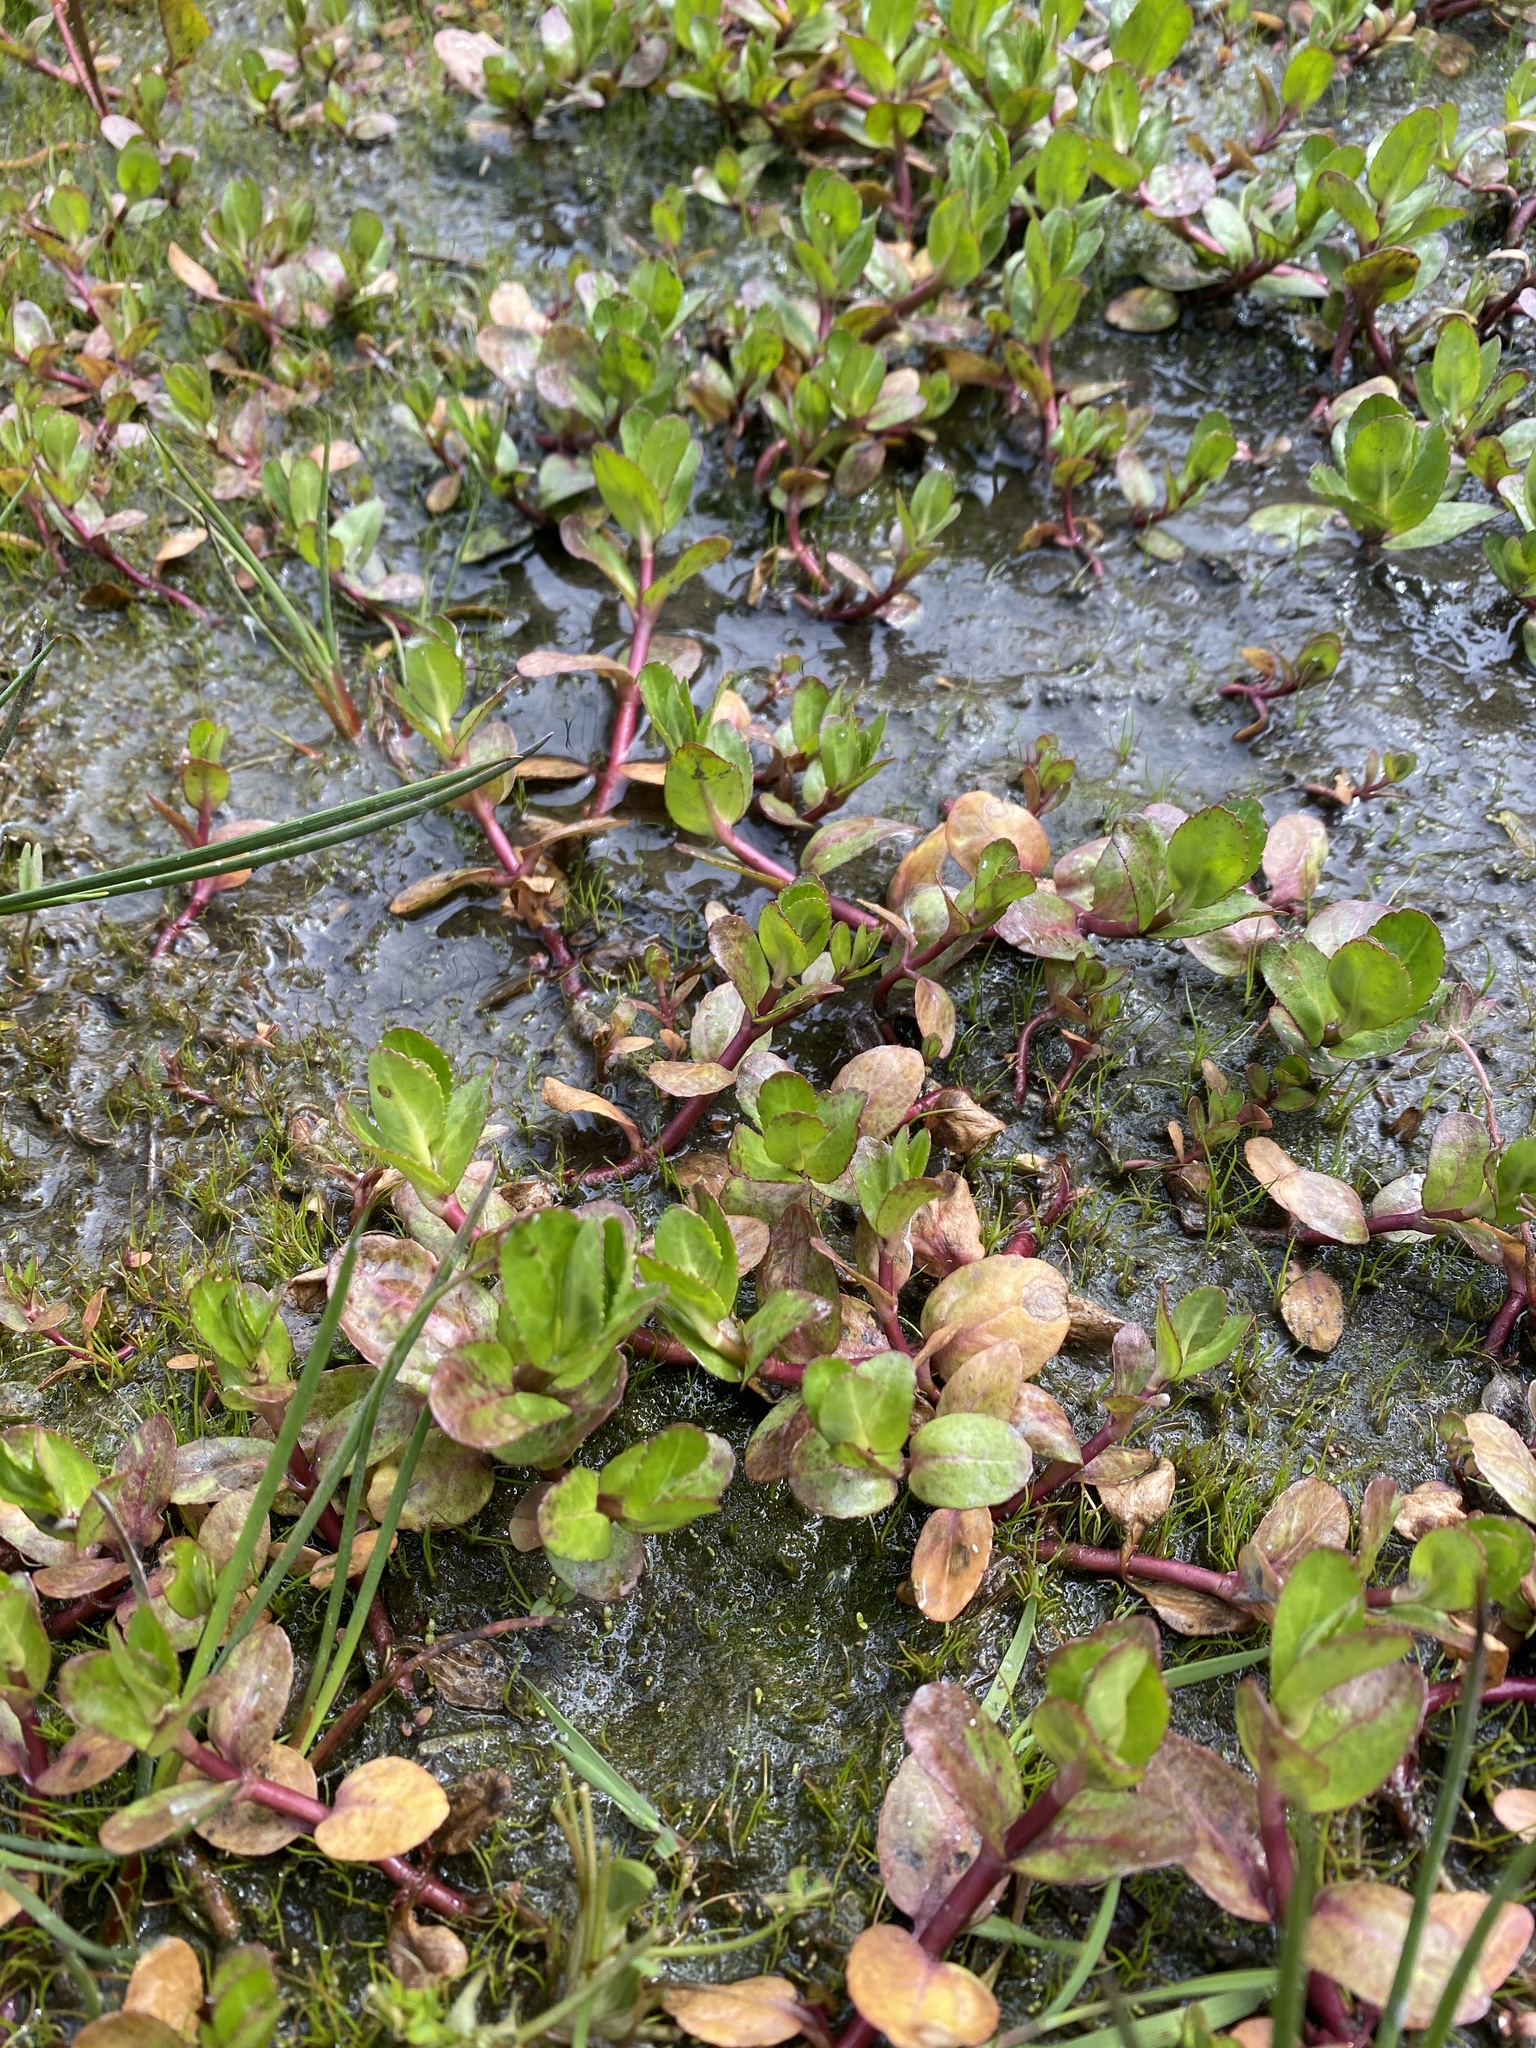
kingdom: Plantae
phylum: Tracheophyta
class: Magnoliopsida
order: Lamiales
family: Plantaginaceae
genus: Veronica
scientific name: Veronica beccabunga
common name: Brooklime
